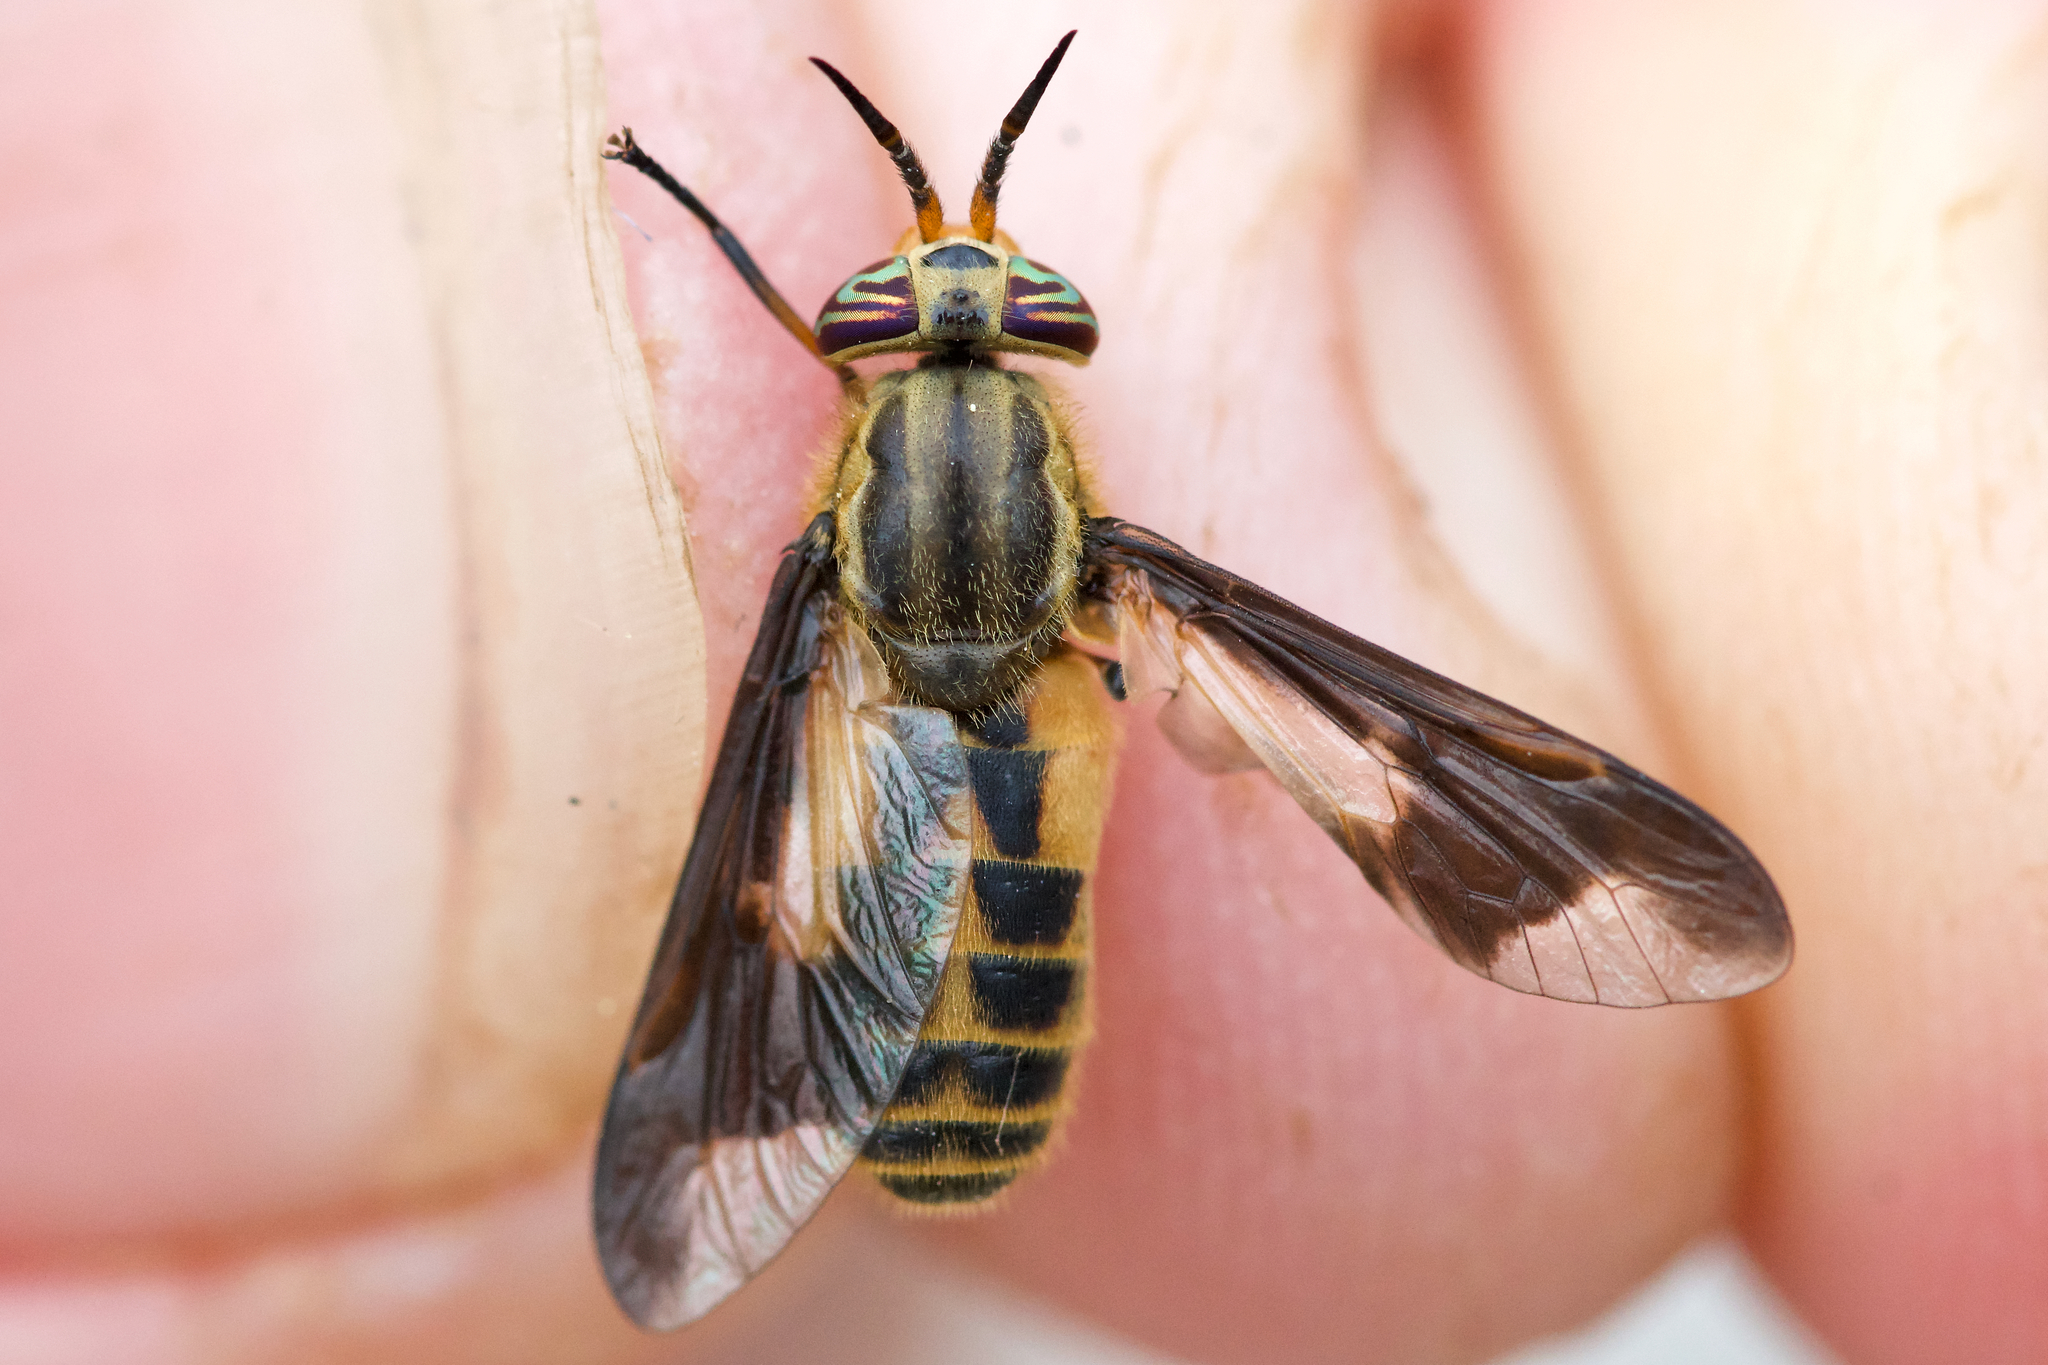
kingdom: Animalia
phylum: Arthropoda
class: Insecta
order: Diptera
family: Tabanidae
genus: Chrysops
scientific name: Chrysops indus
